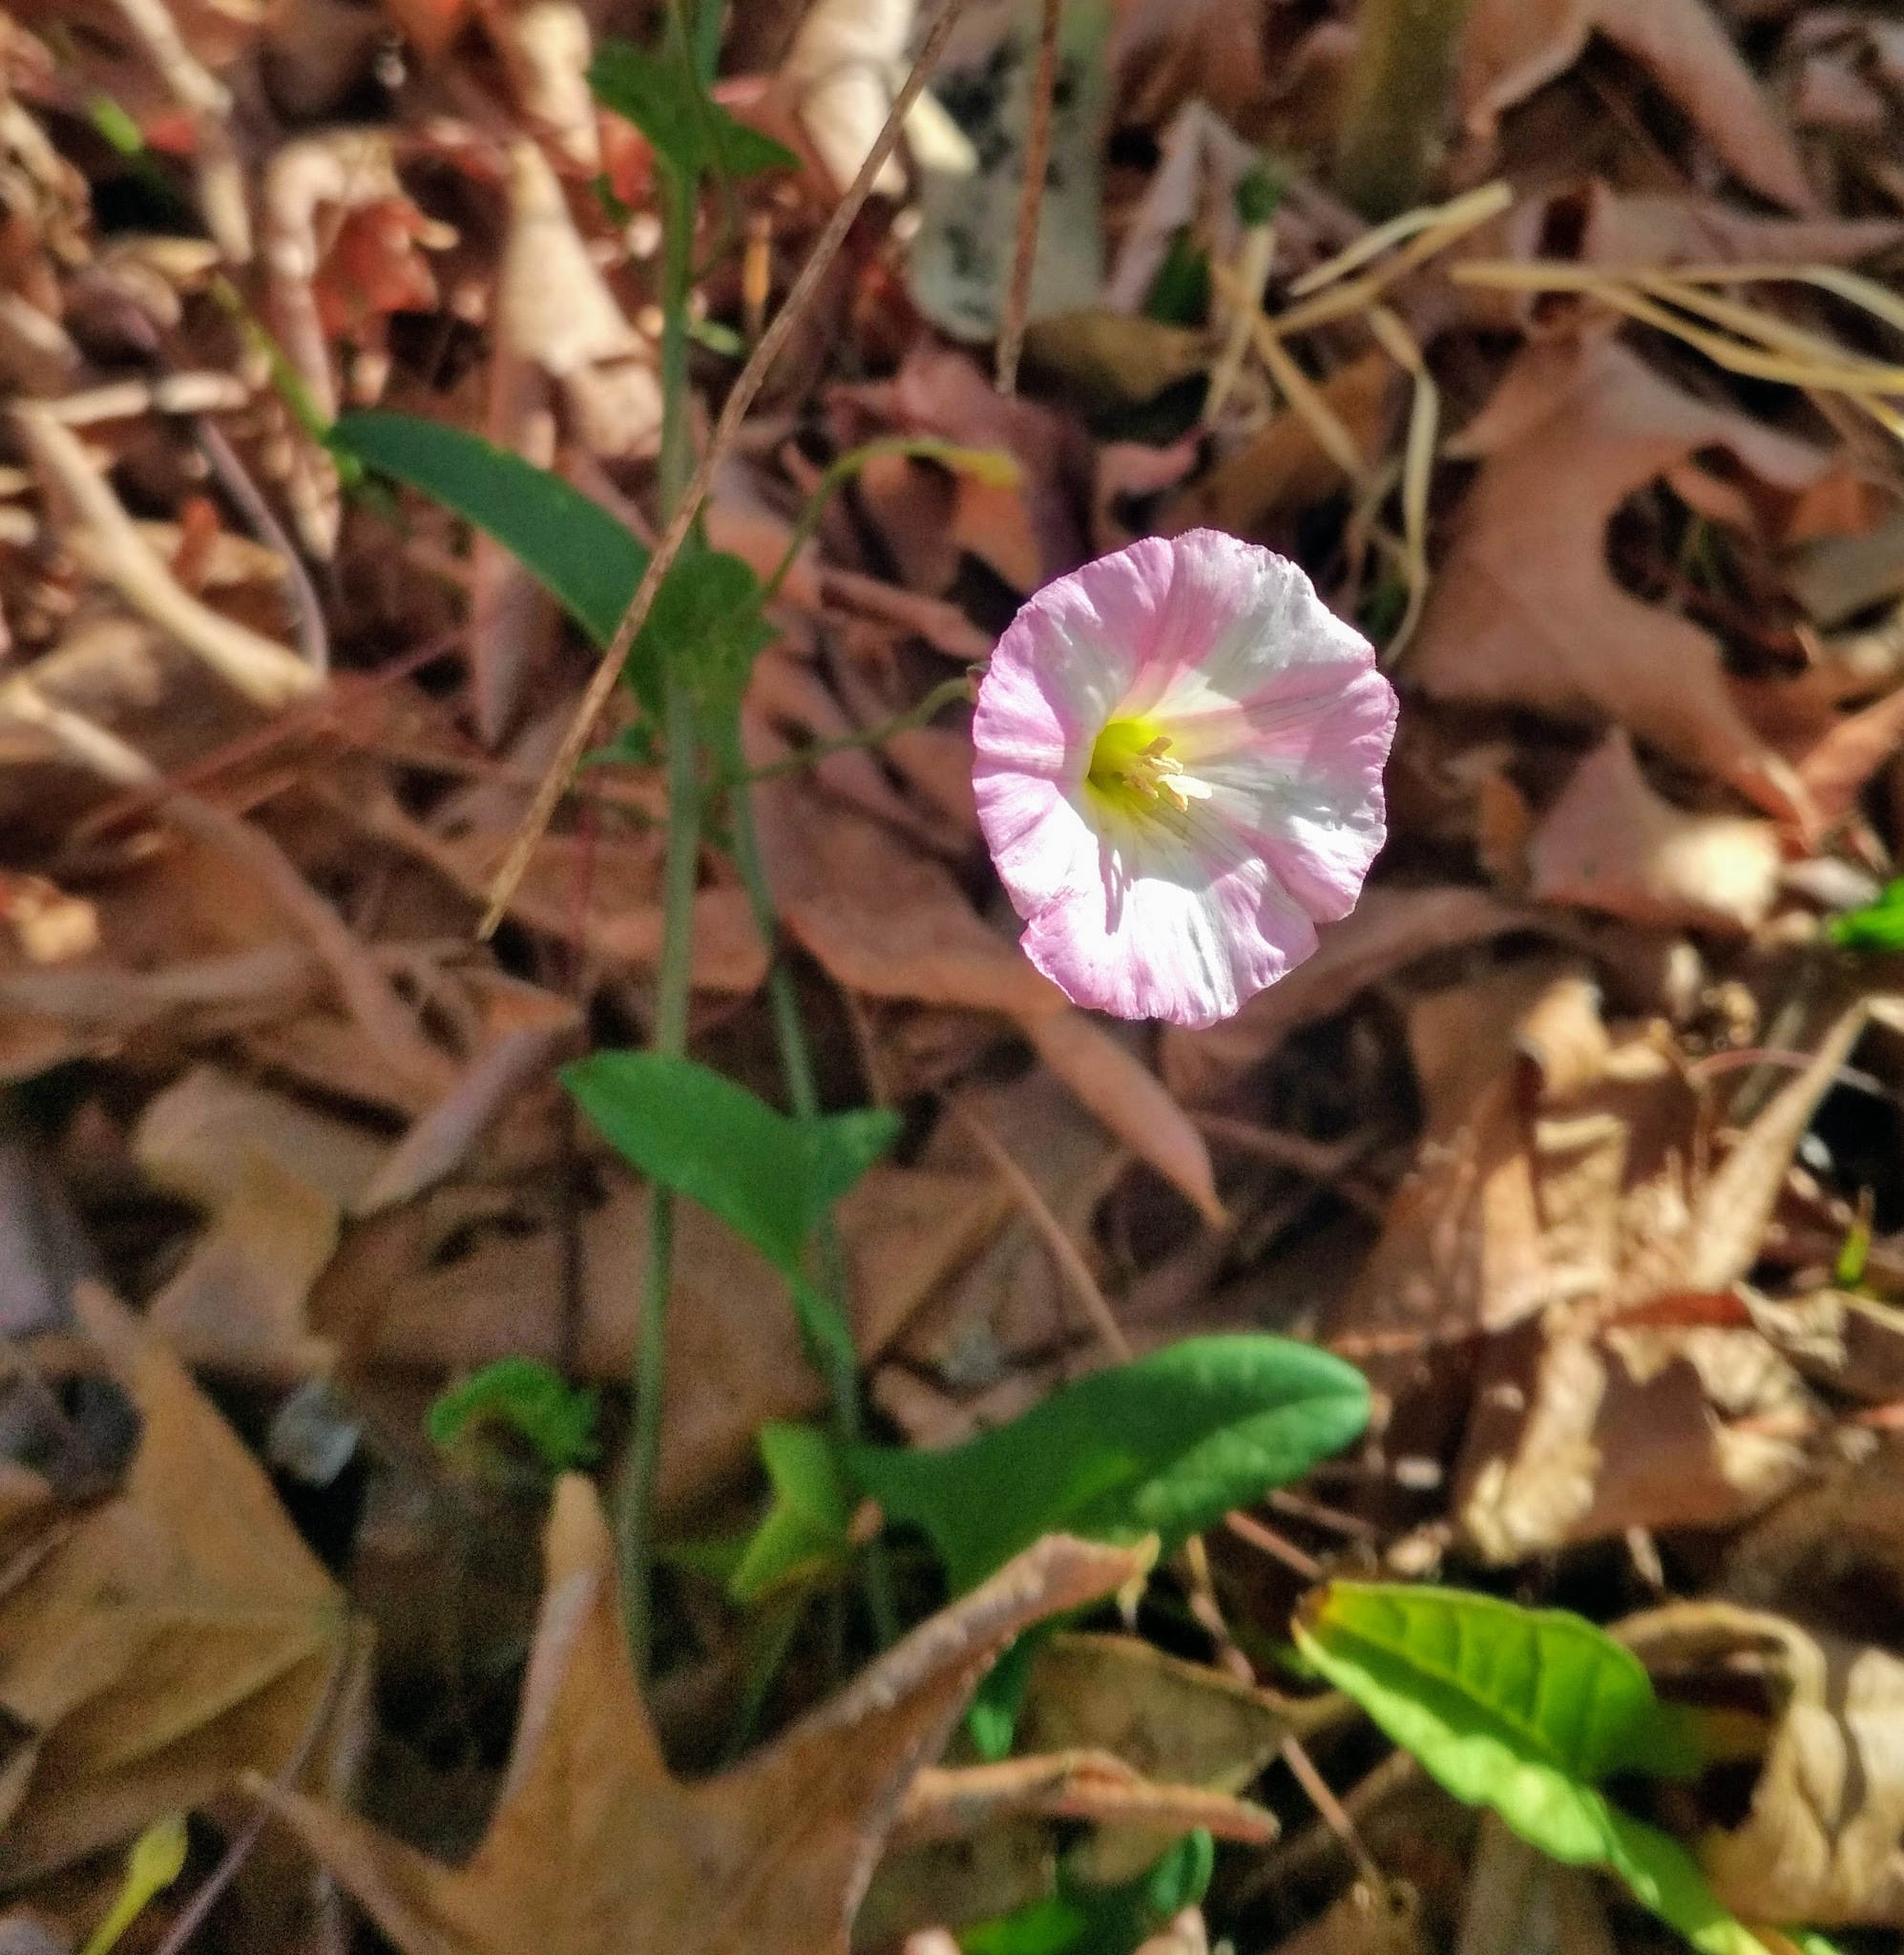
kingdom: Plantae
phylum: Tracheophyta
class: Magnoliopsida
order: Solanales
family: Convolvulaceae
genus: Convolvulus
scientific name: Convolvulus arvensis
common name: Field bindweed
